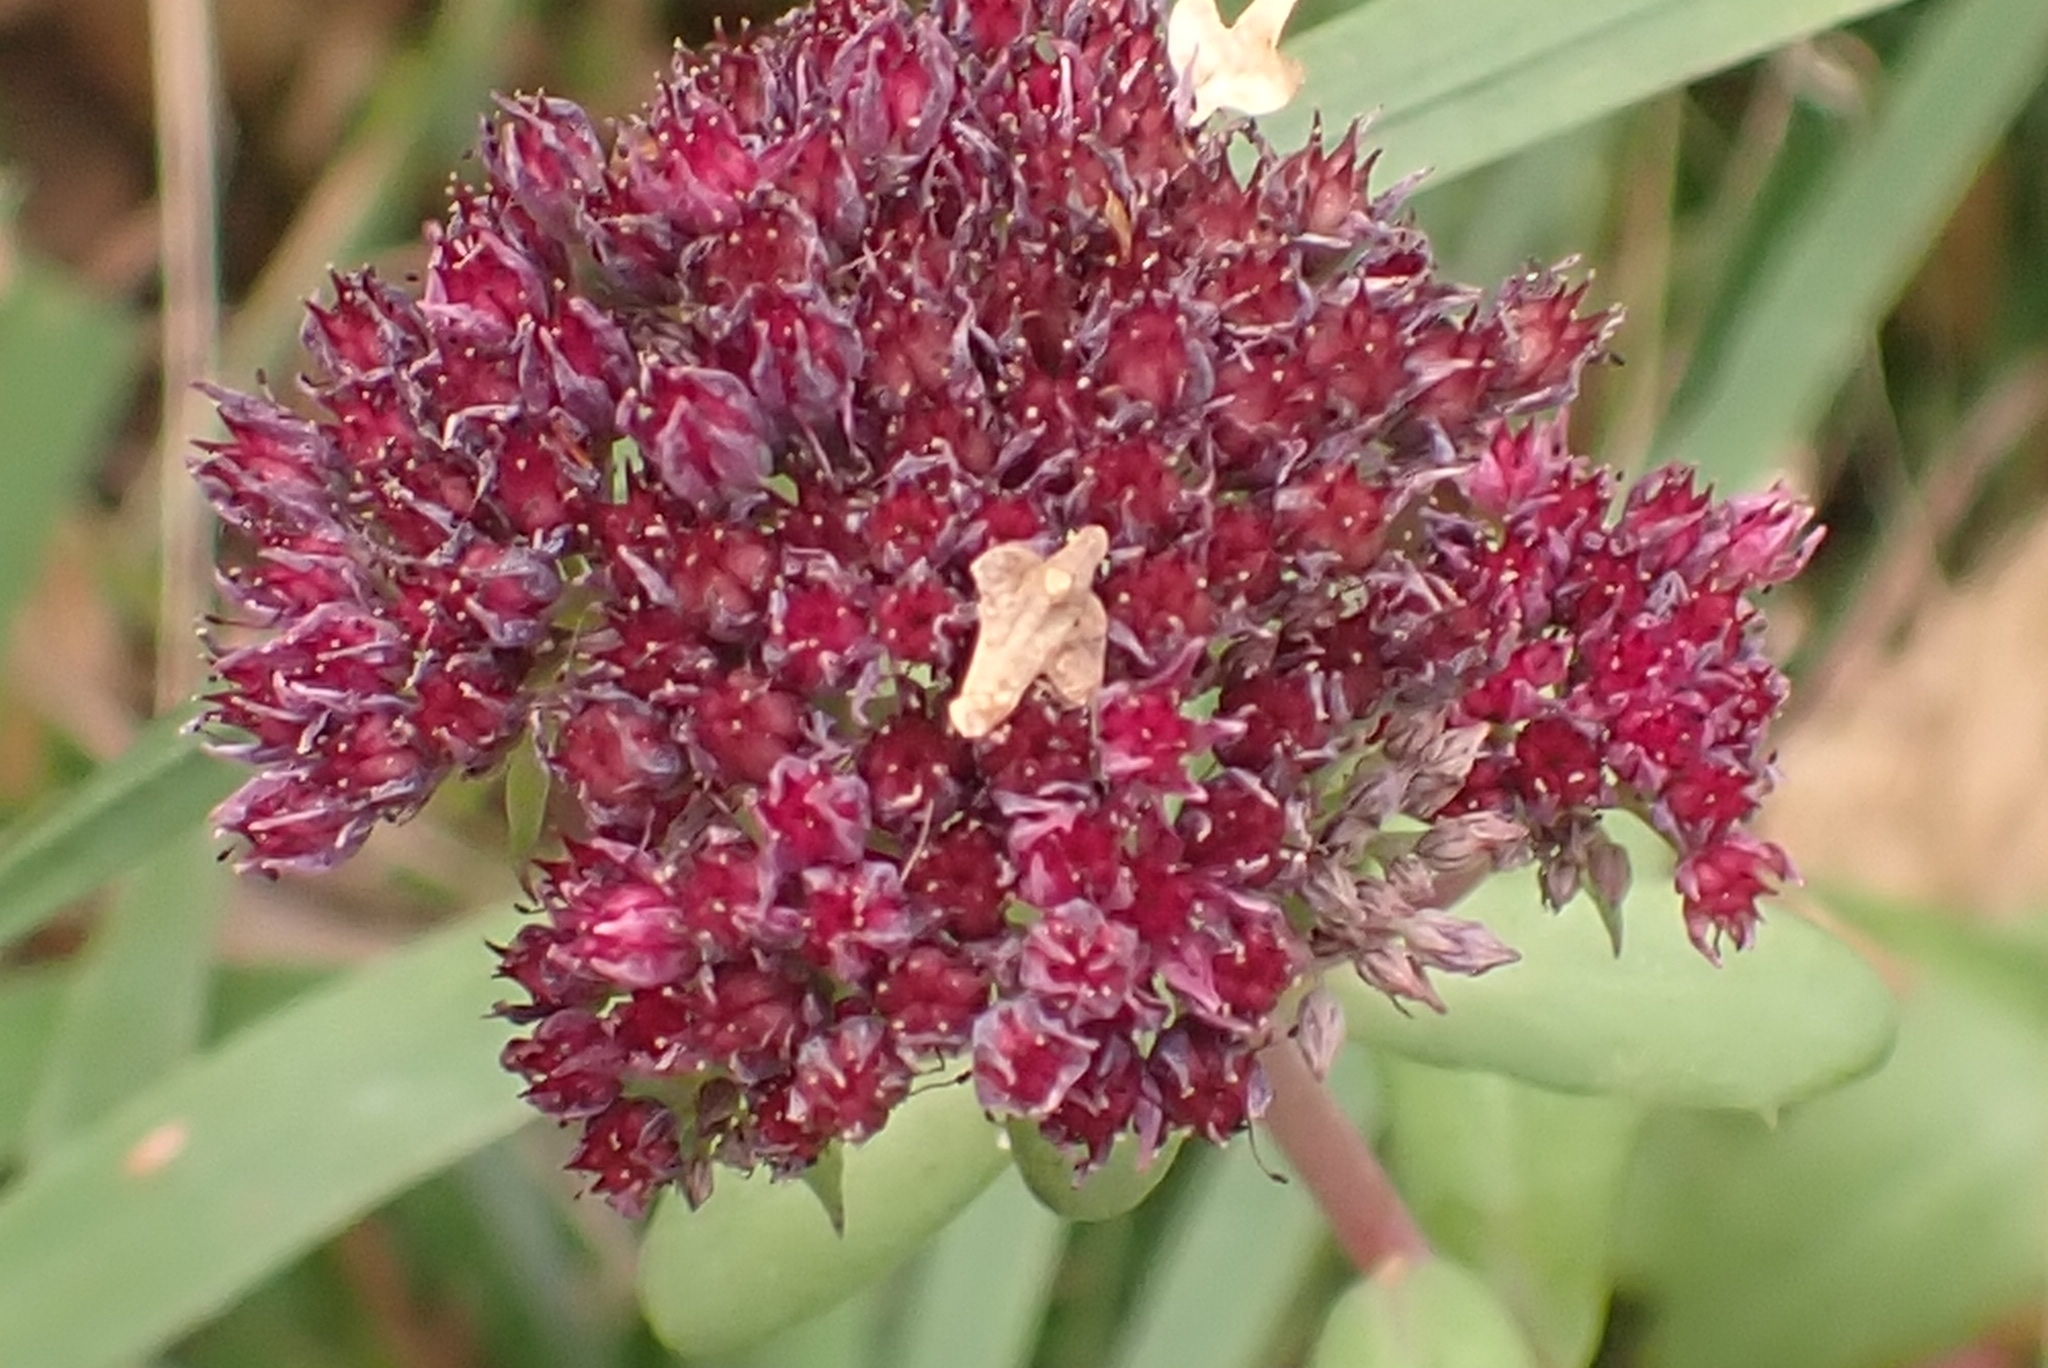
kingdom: Plantae
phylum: Tracheophyta
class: Magnoliopsida
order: Saxifragales
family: Crassulaceae
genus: Hylotelephium
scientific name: Hylotelephium telephium
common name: Live-forever
